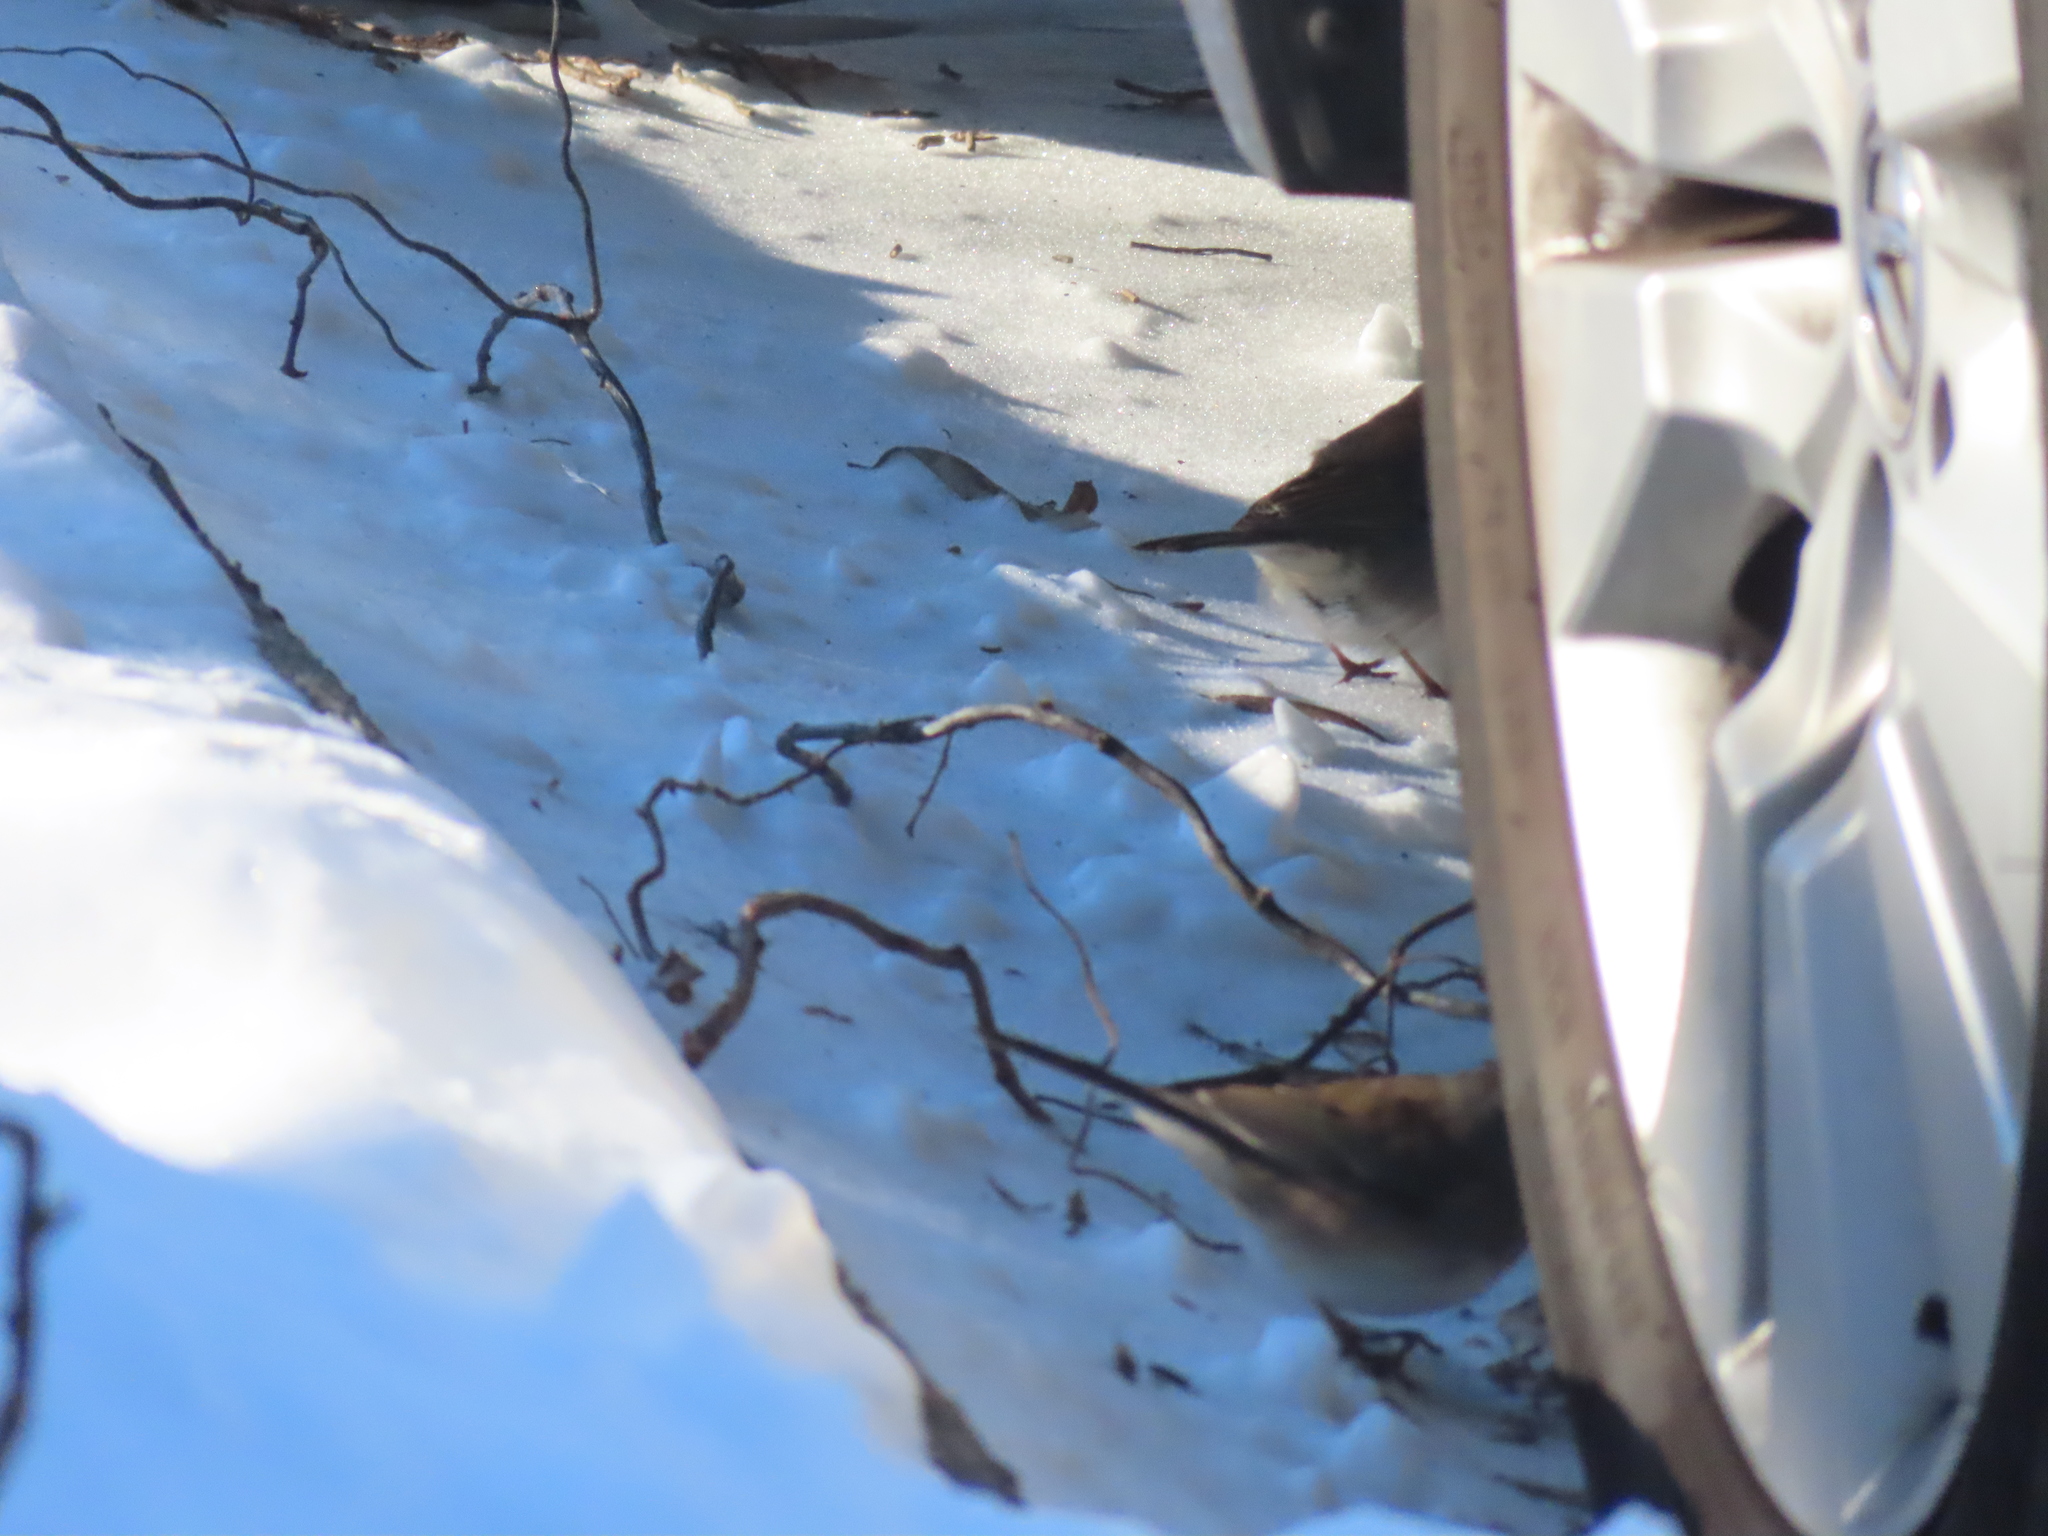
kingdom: Animalia
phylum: Chordata
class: Aves
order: Passeriformes
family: Passerellidae
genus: Junco
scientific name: Junco hyemalis
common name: Dark-eyed junco
